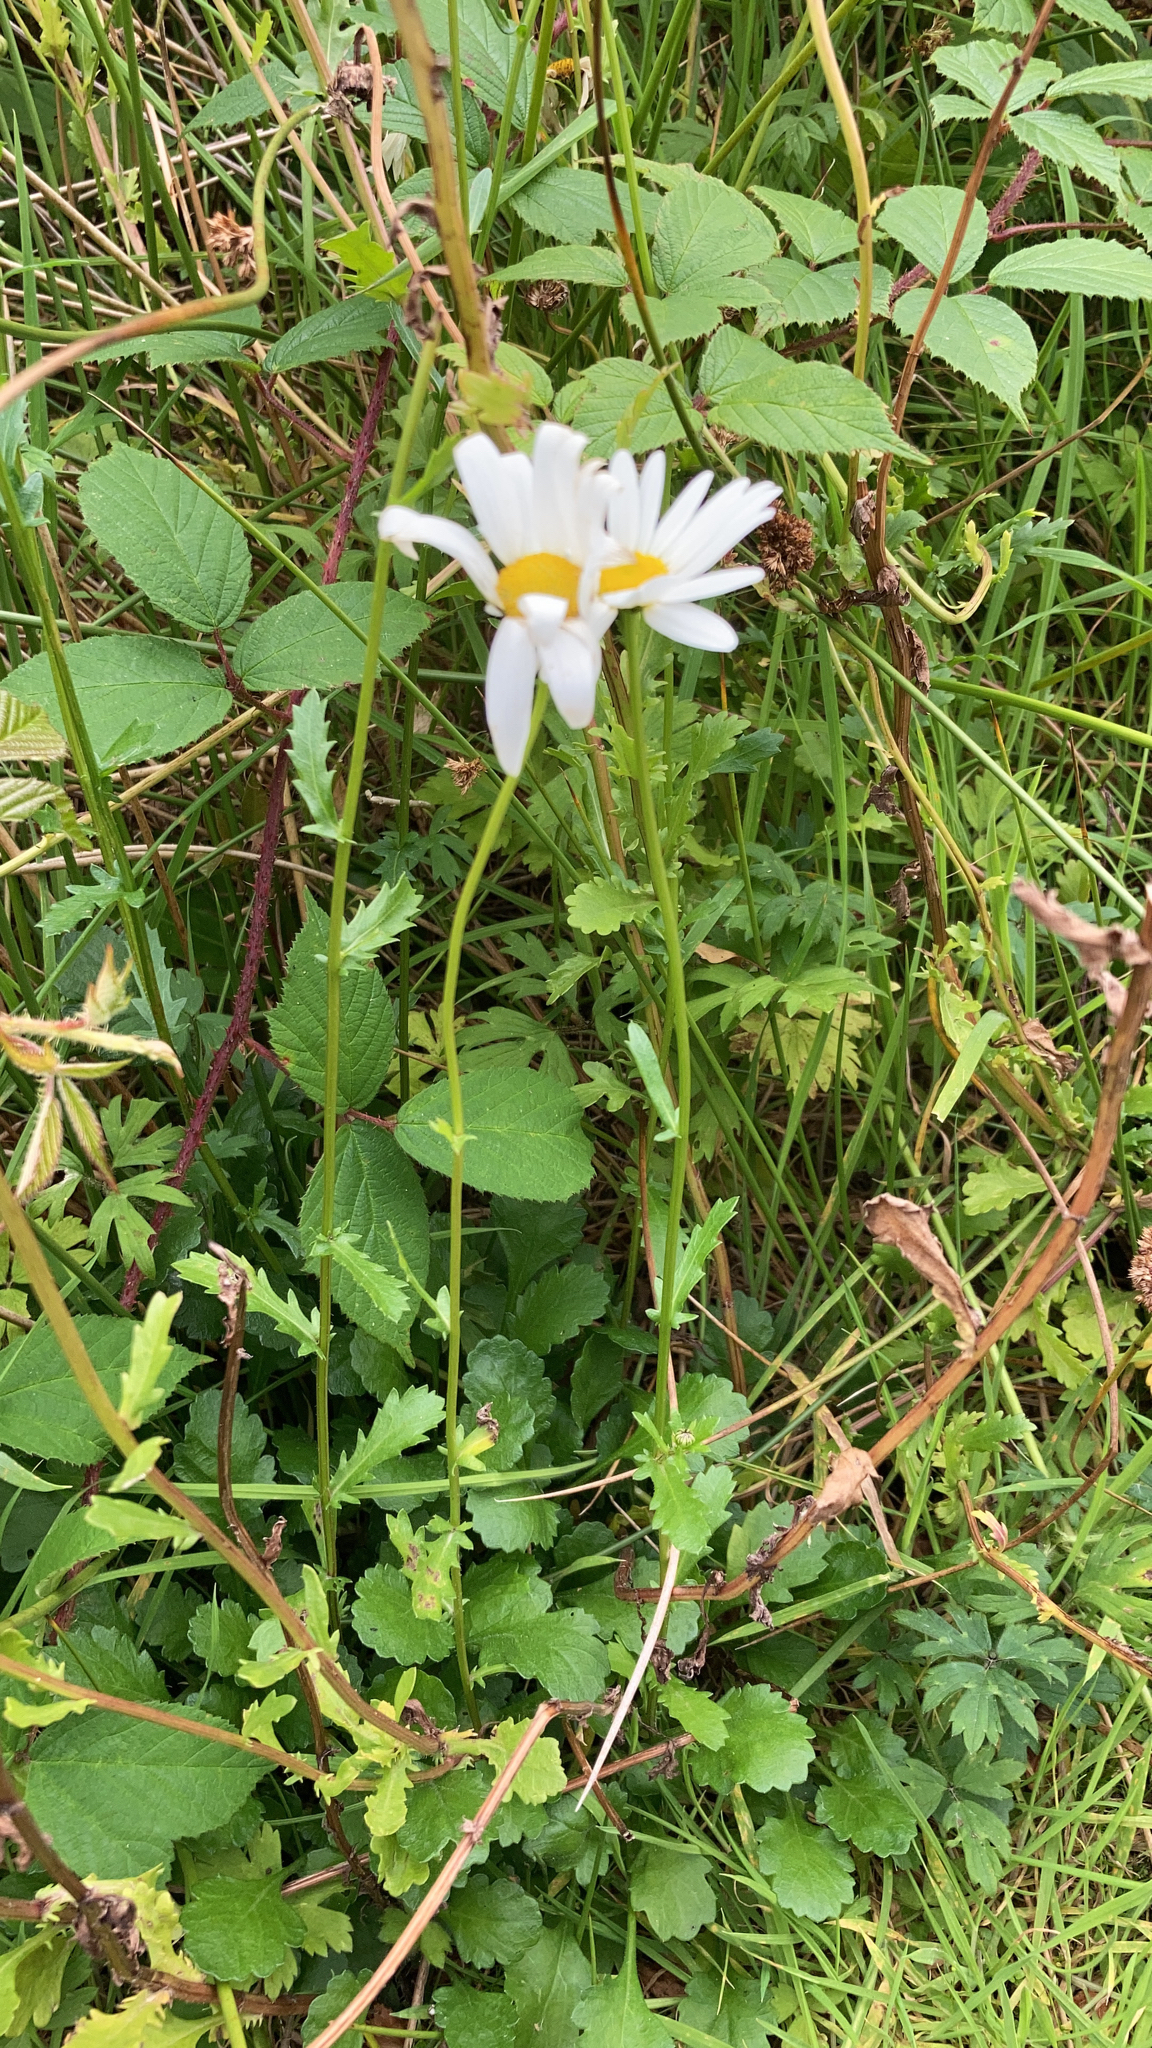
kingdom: Plantae
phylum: Tracheophyta
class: Magnoliopsida
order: Asterales
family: Asteraceae
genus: Leucanthemum
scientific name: Leucanthemum vulgare
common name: Oxeye daisy
